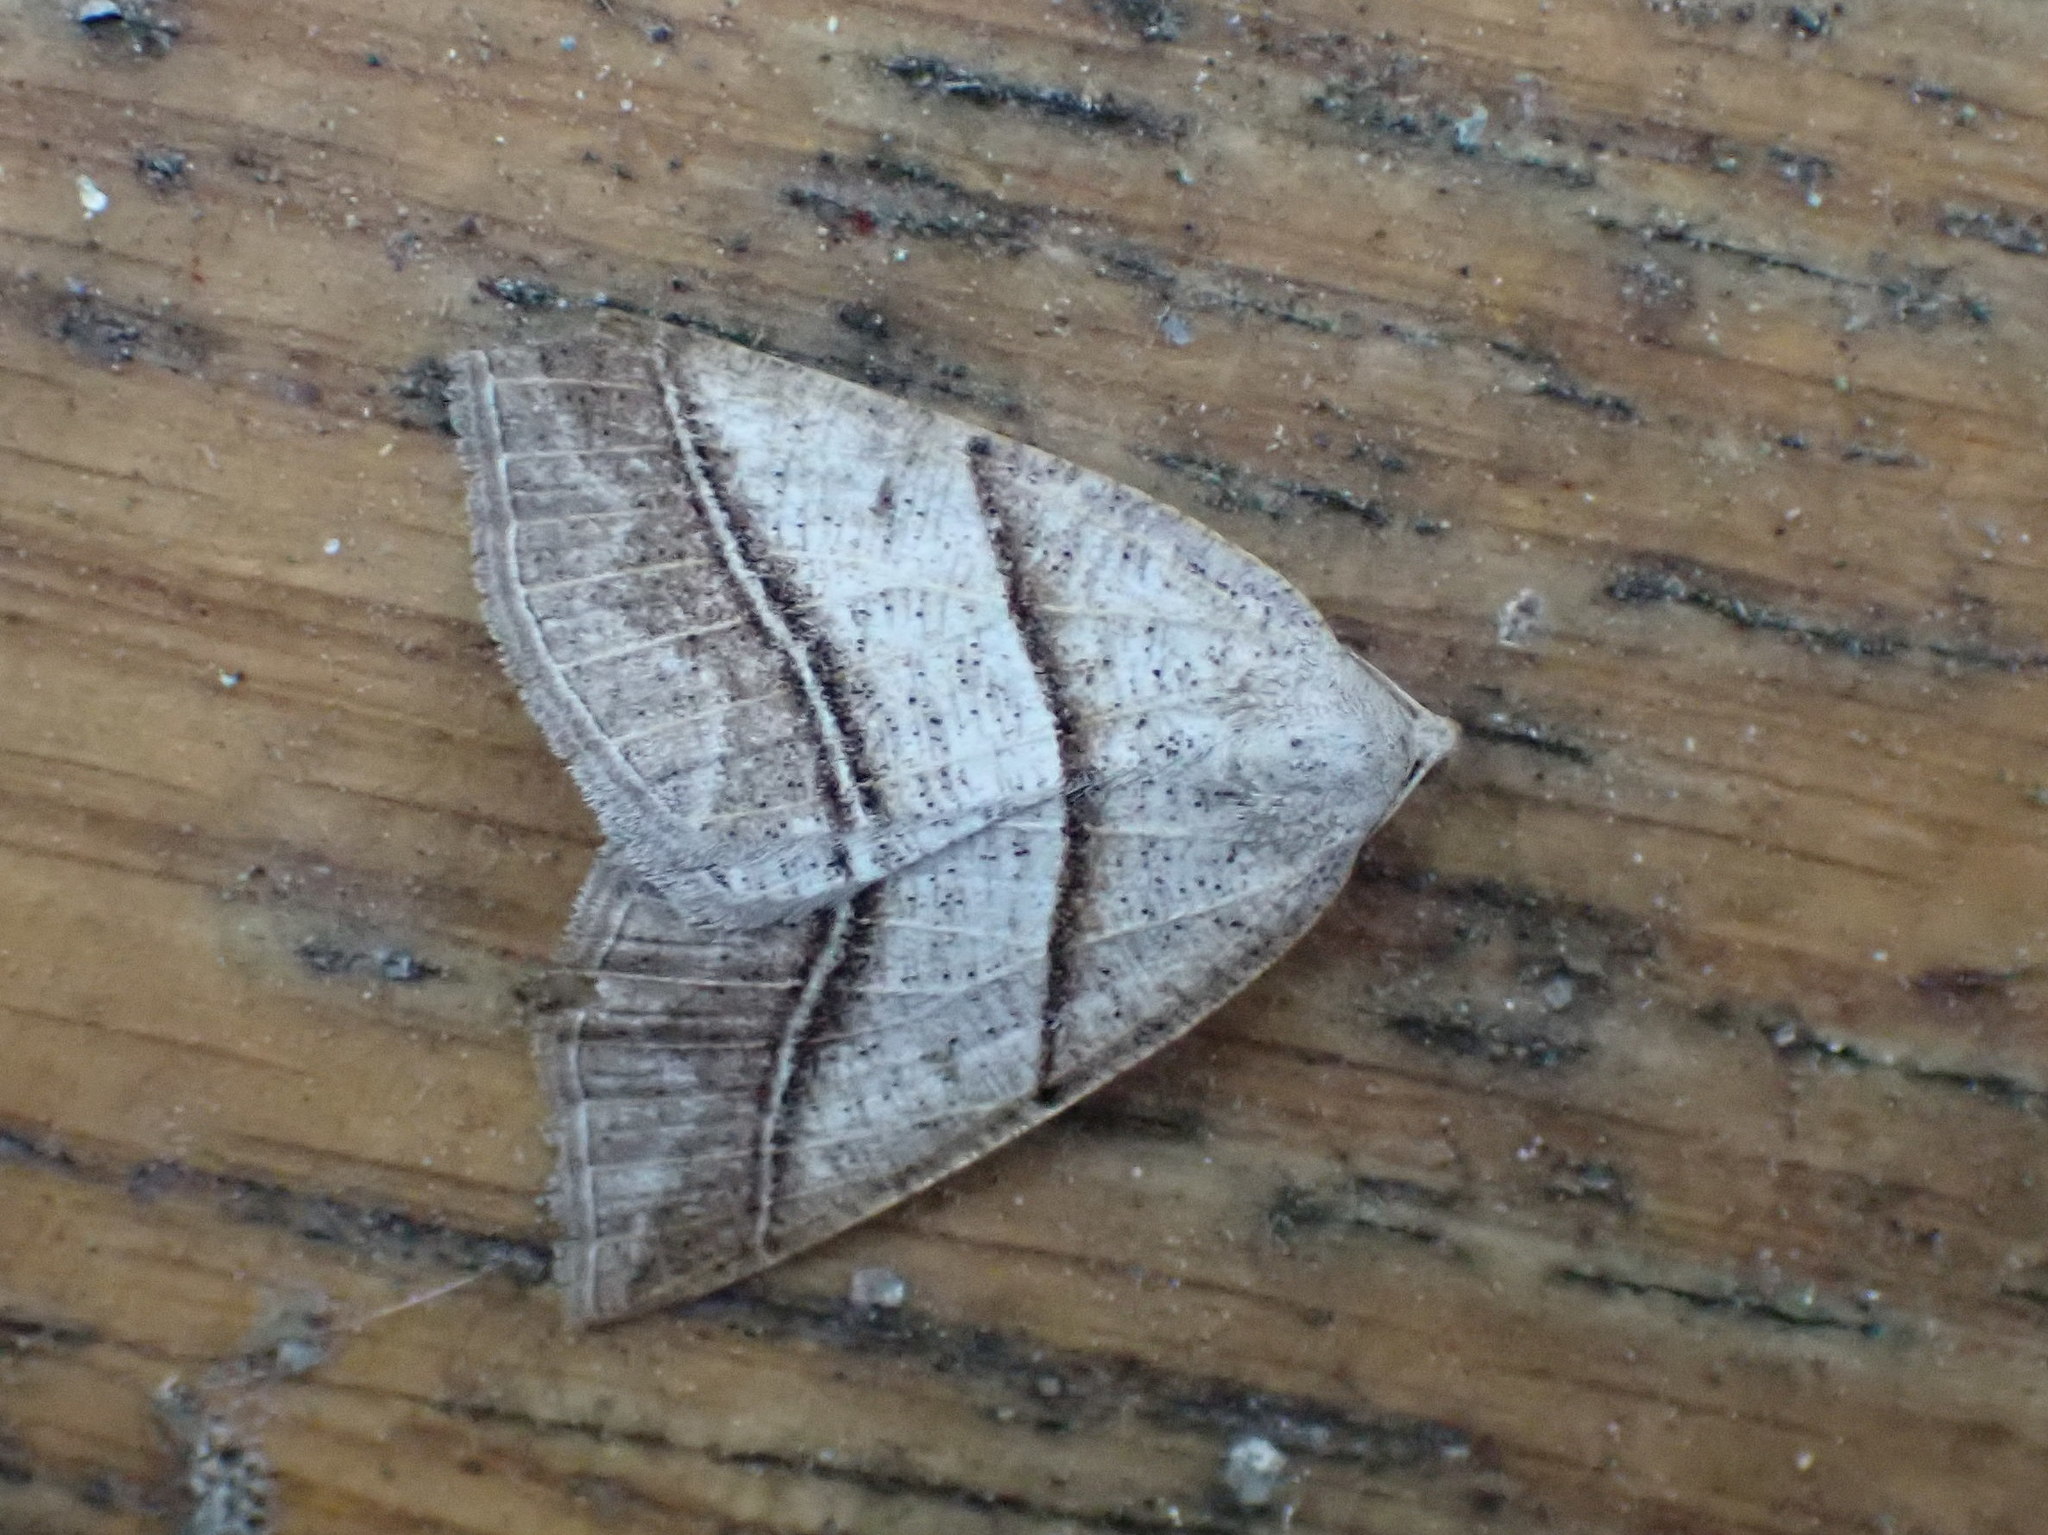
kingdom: Animalia
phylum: Arthropoda
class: Insecta
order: Lepidoptera
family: Pterophoridae
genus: Pterophorus
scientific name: Pterophorus Petrophora subaequaria
